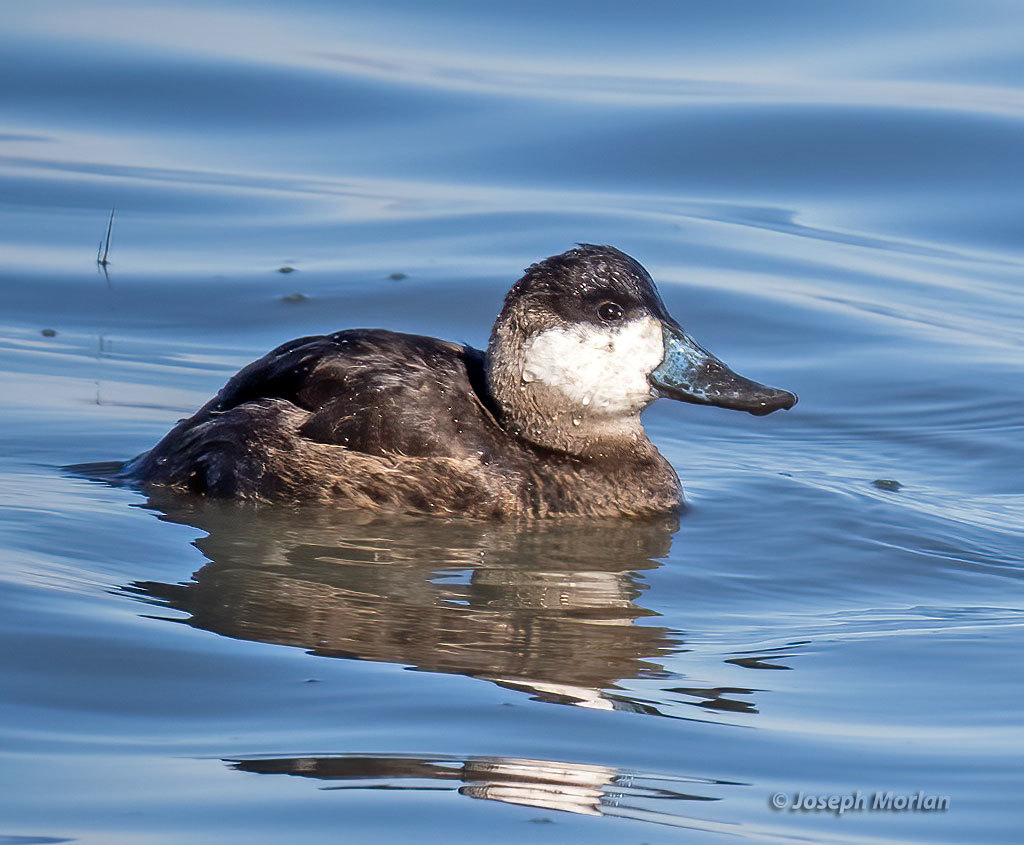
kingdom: Animalia
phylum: Chordata
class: Aves
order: Anseriformes
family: Anatidae
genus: Oxyura
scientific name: Oxyura jamaicensis
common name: Ruddy duck
